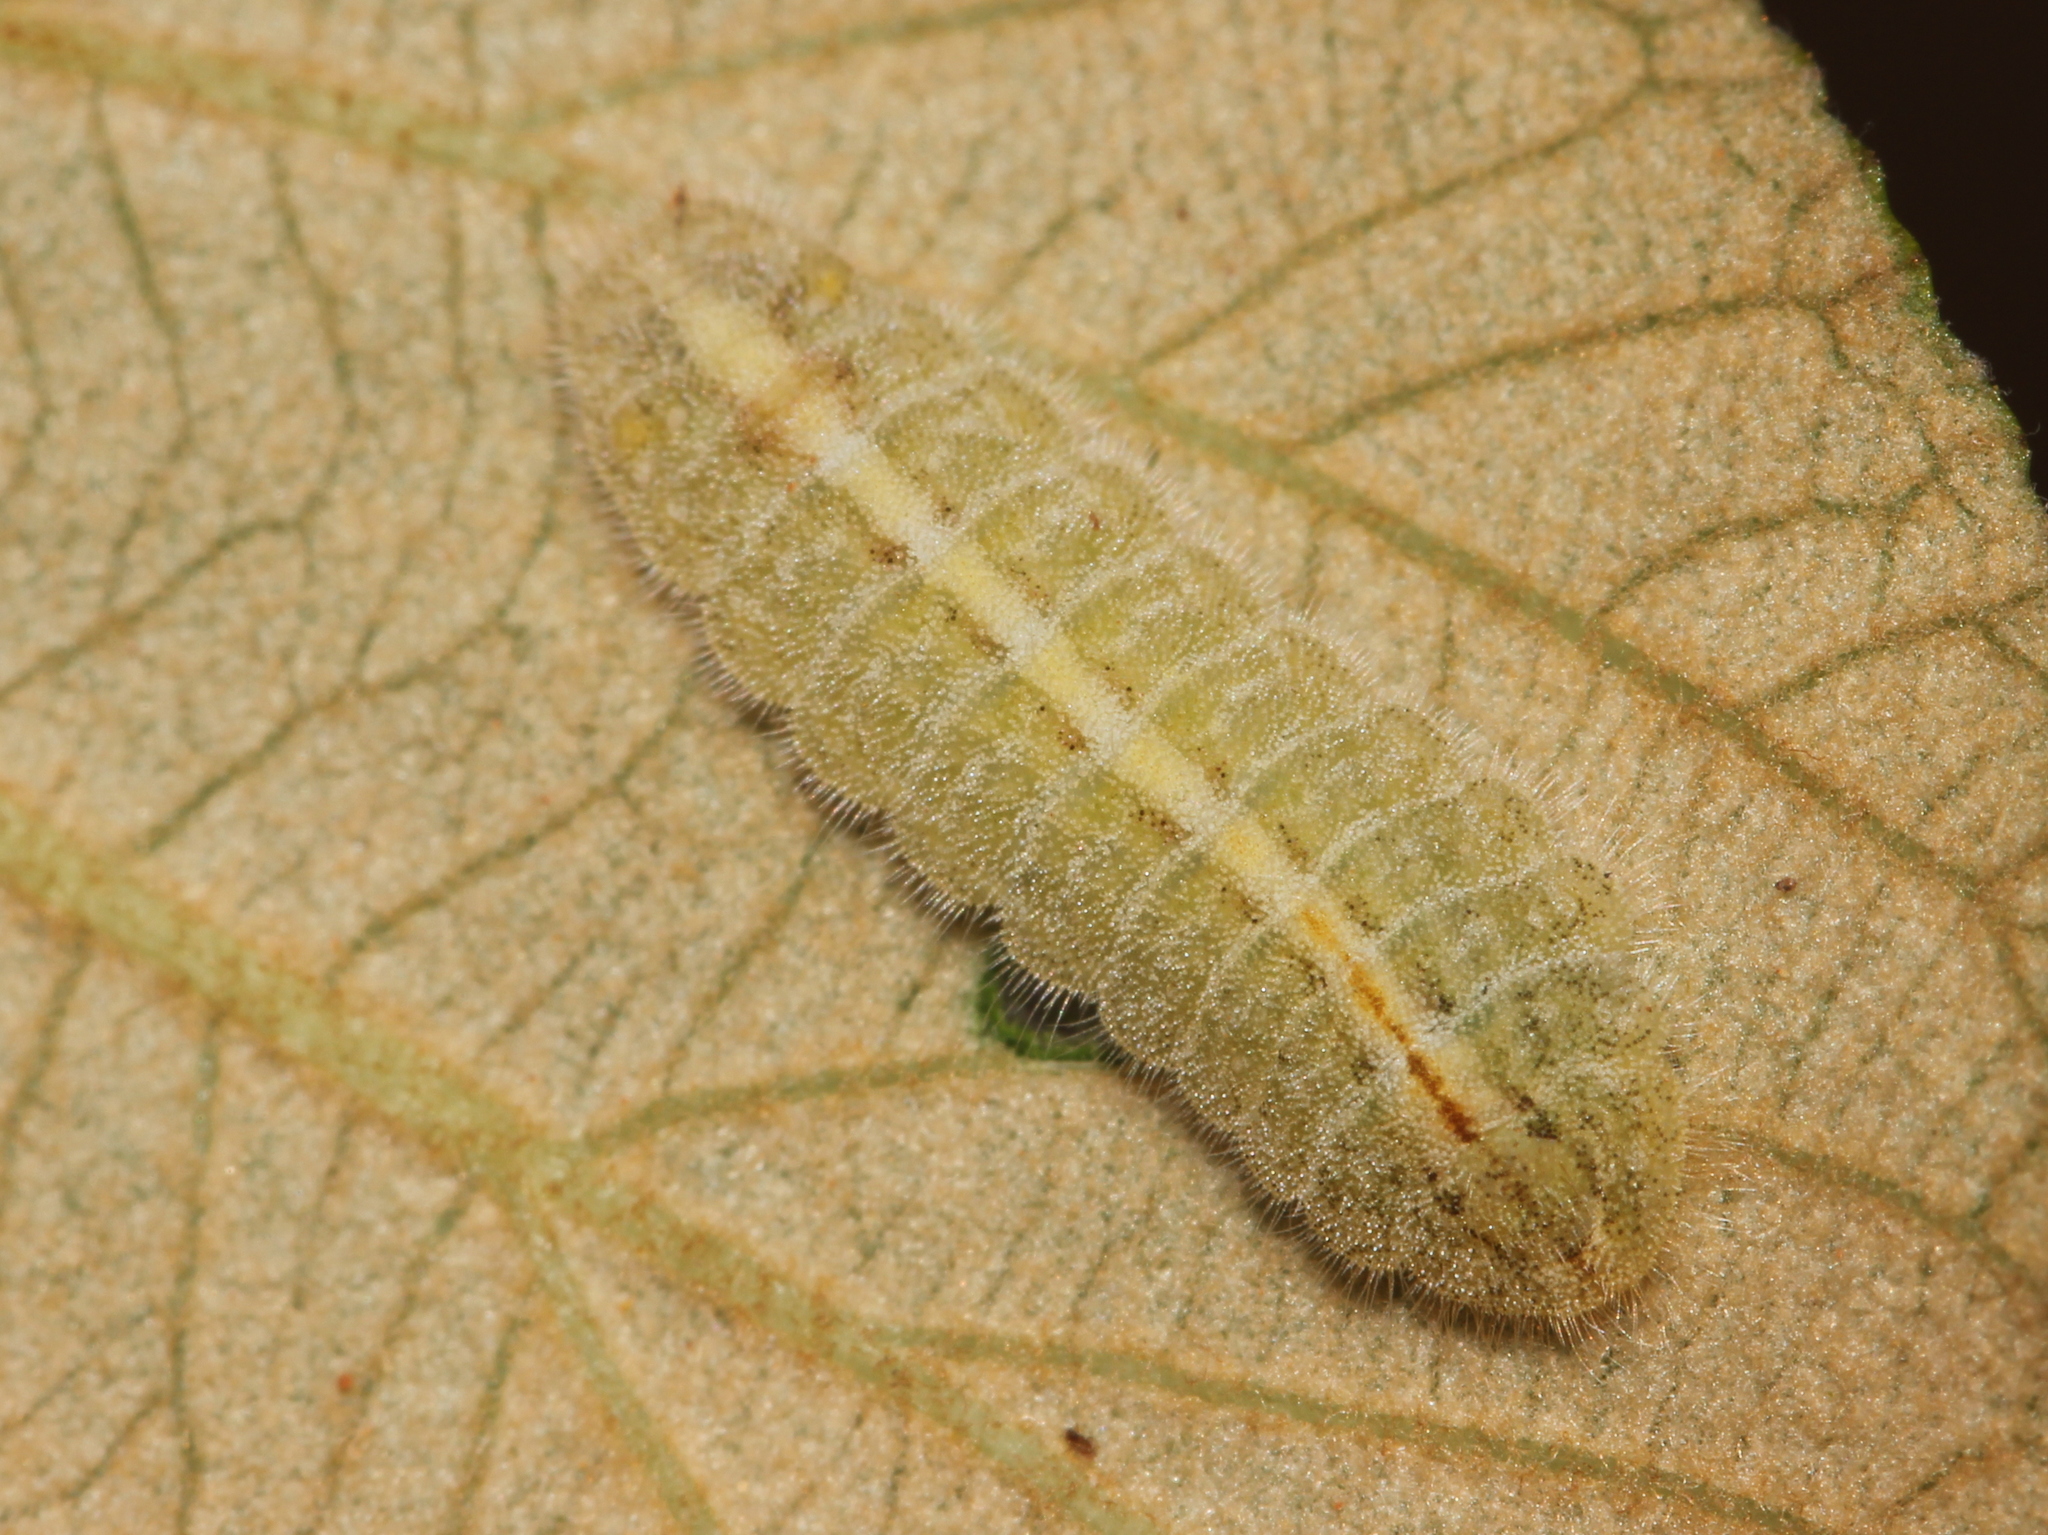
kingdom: Animalia
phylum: Arthropoda
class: Insecta
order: Lepidoptera
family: Lycaenidae
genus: Tarucus
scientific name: Tarucus nara
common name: Striped pierrot
